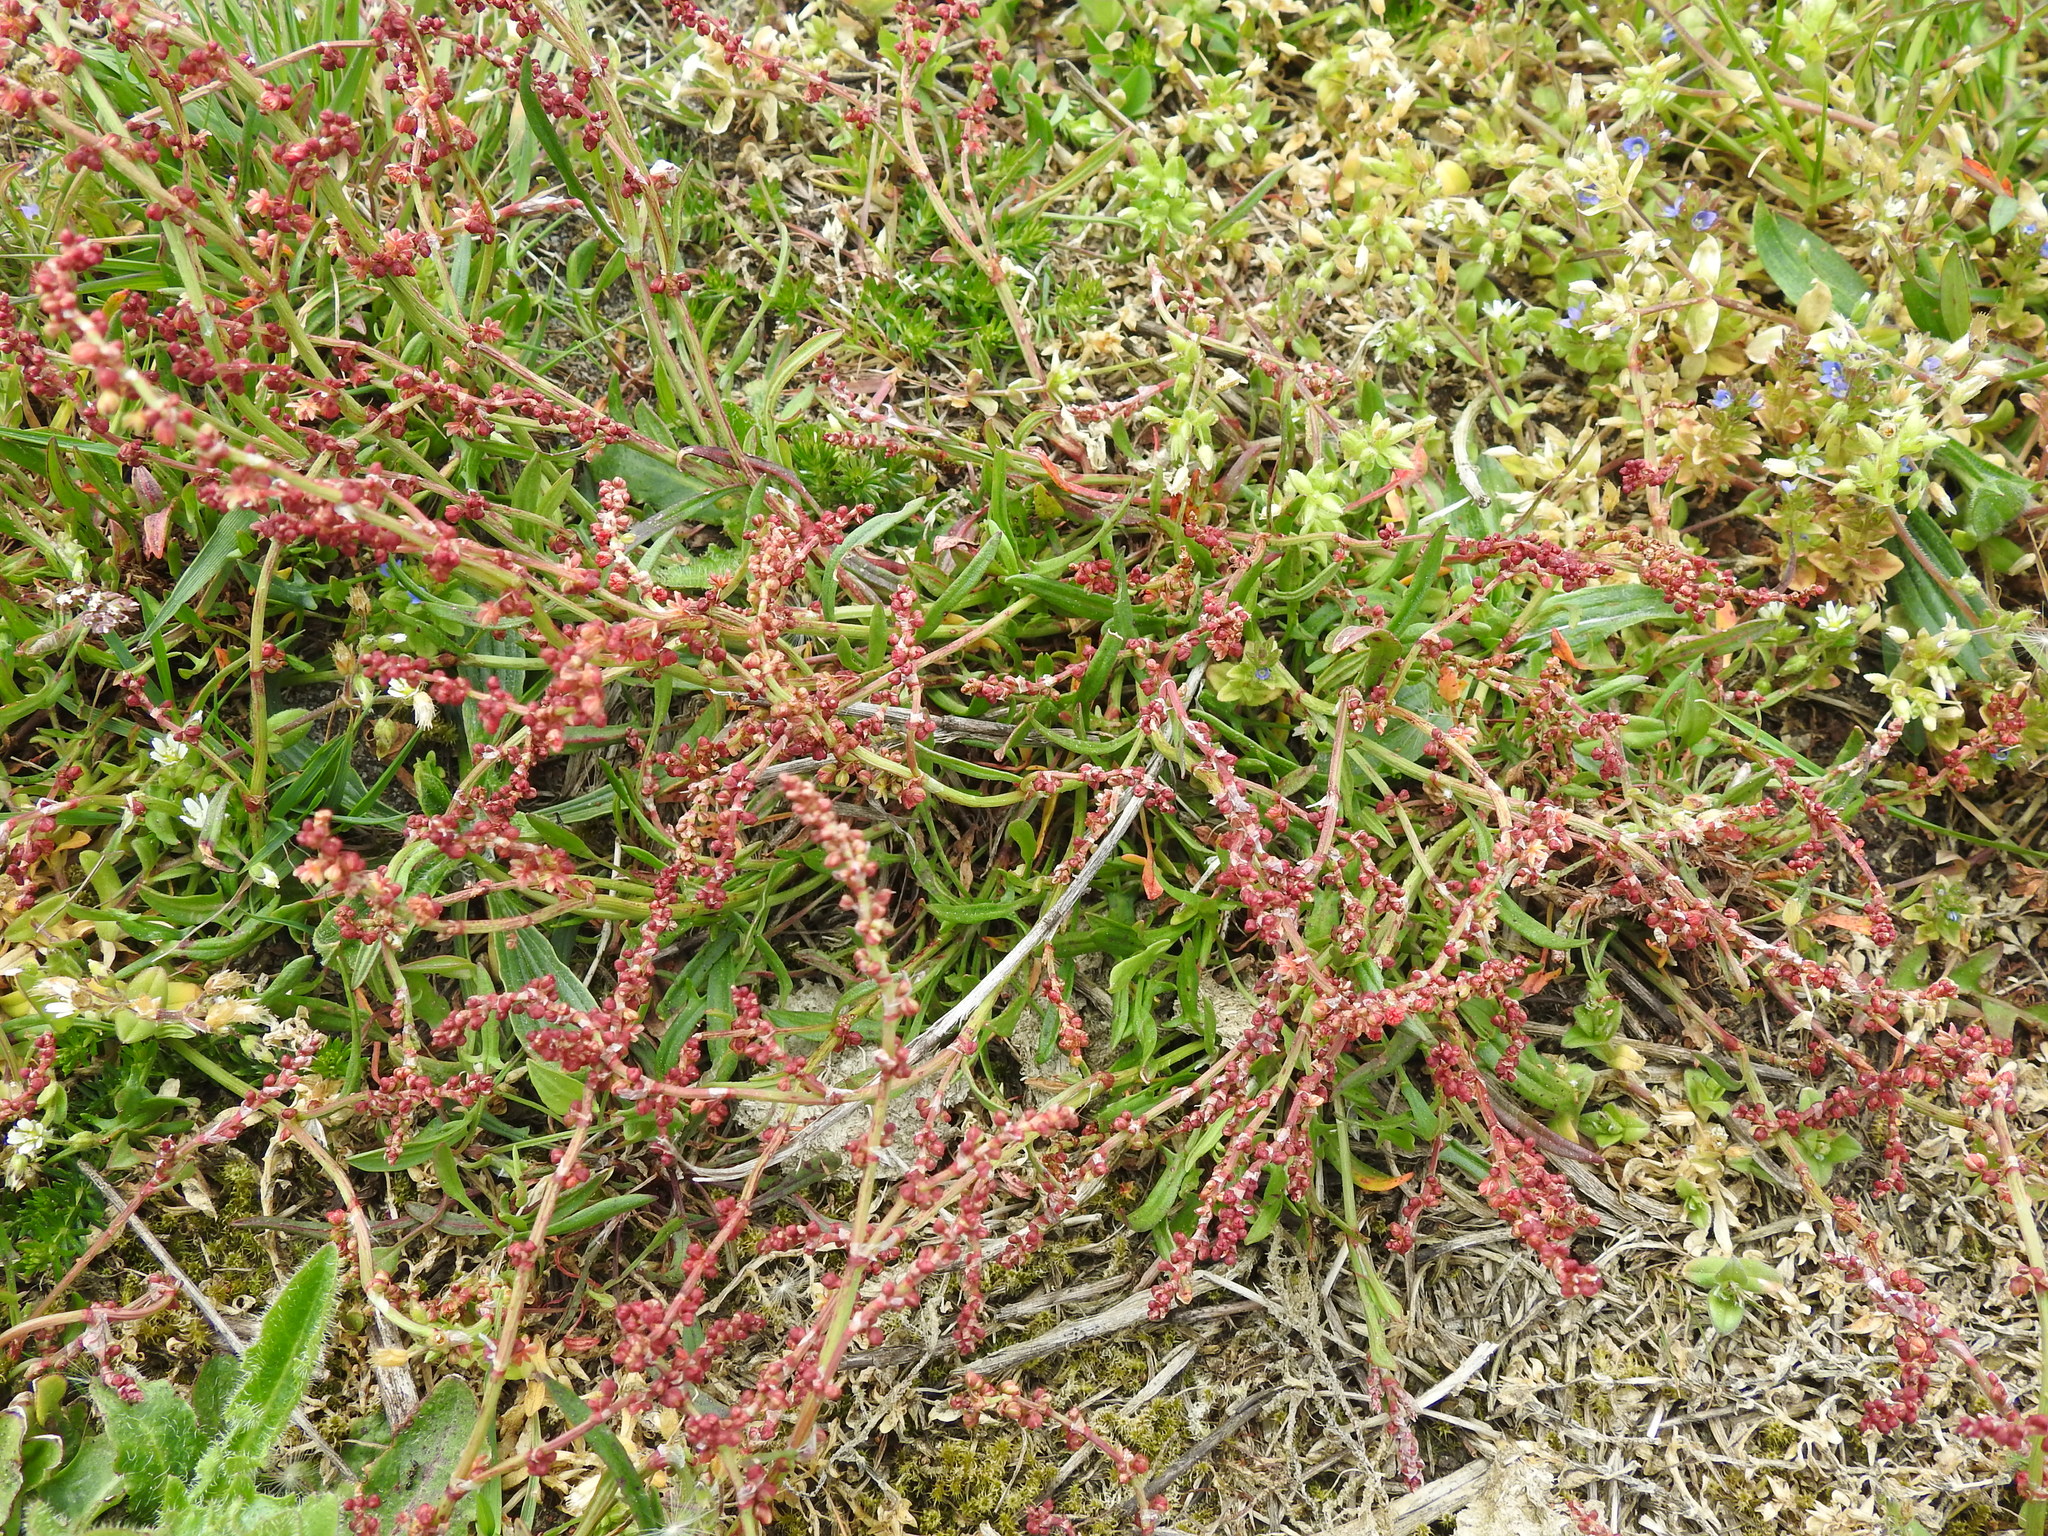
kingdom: Plantae
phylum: Tracheophyta
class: Magnoliopsida
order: Caryophyllales
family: Polygonaceae
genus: Rumex
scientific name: Rumex acetosella
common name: Common sheep sorrel
